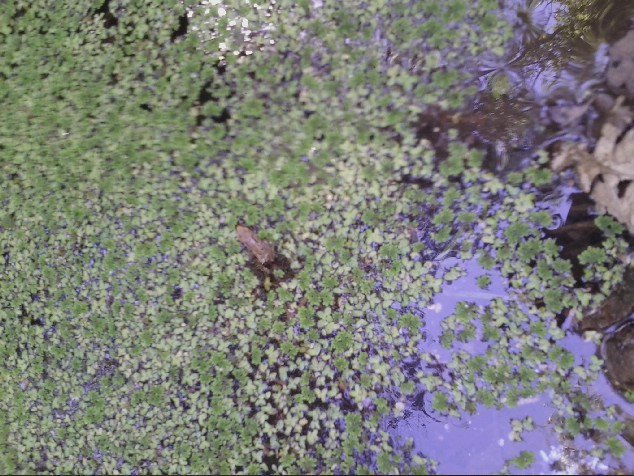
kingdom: Animalia
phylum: Chordata
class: Amphibia
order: Anura
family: Hylidae
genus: Pseudacris
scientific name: Pseudacris regilla
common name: Pacific chorus frog
